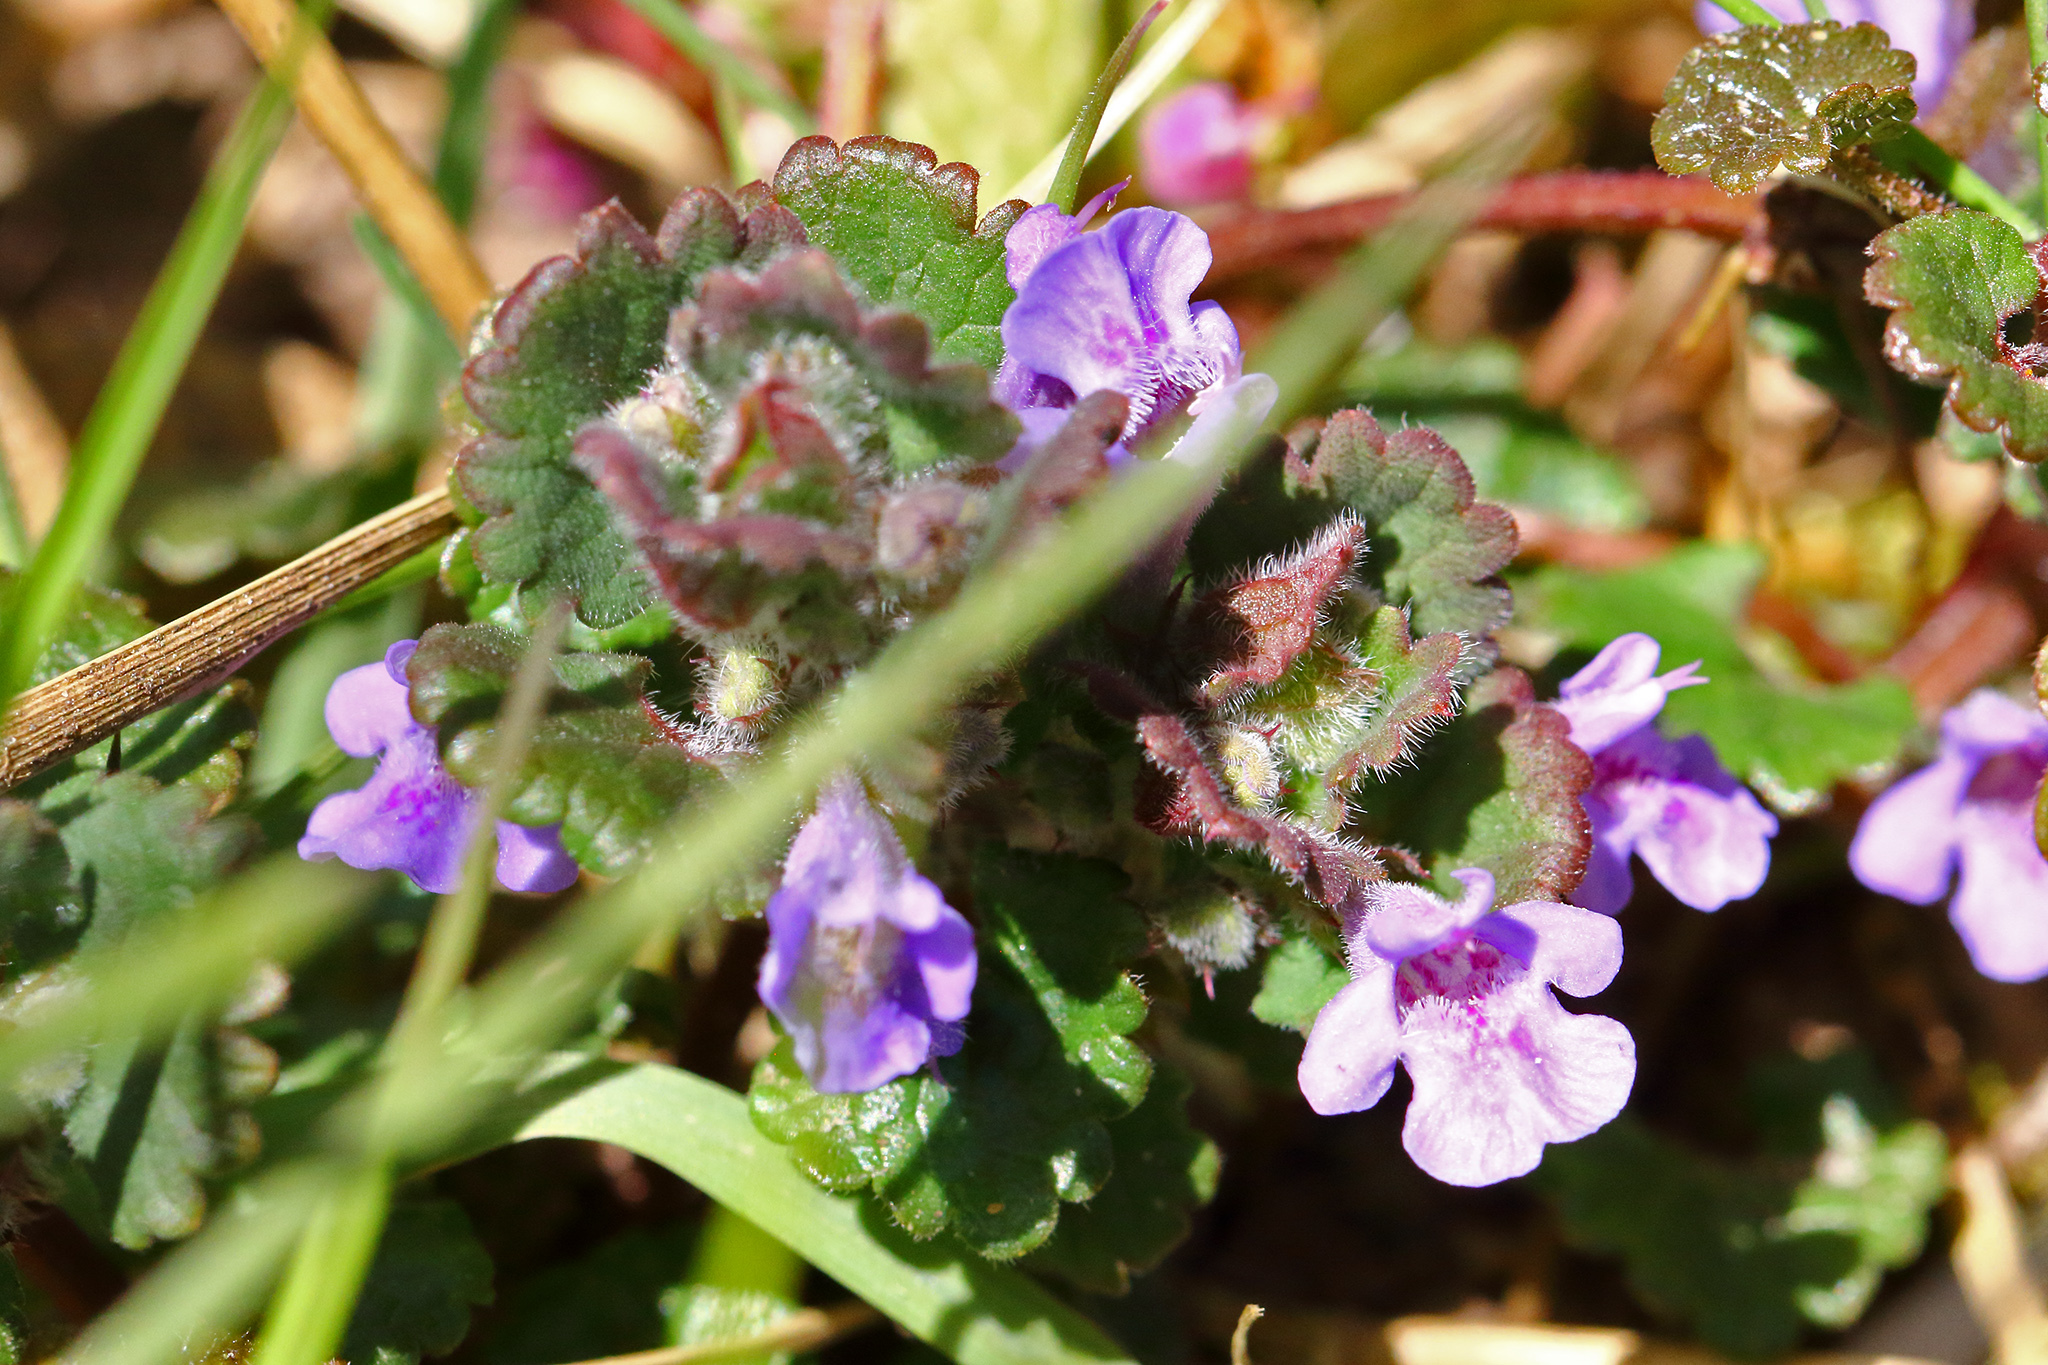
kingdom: Plantae
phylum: Tracheophyta
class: Magnoliopsida
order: Lamiales
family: Lamiaceae
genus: Glechoma
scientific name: Glechoma hederacea
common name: Ground ivy
